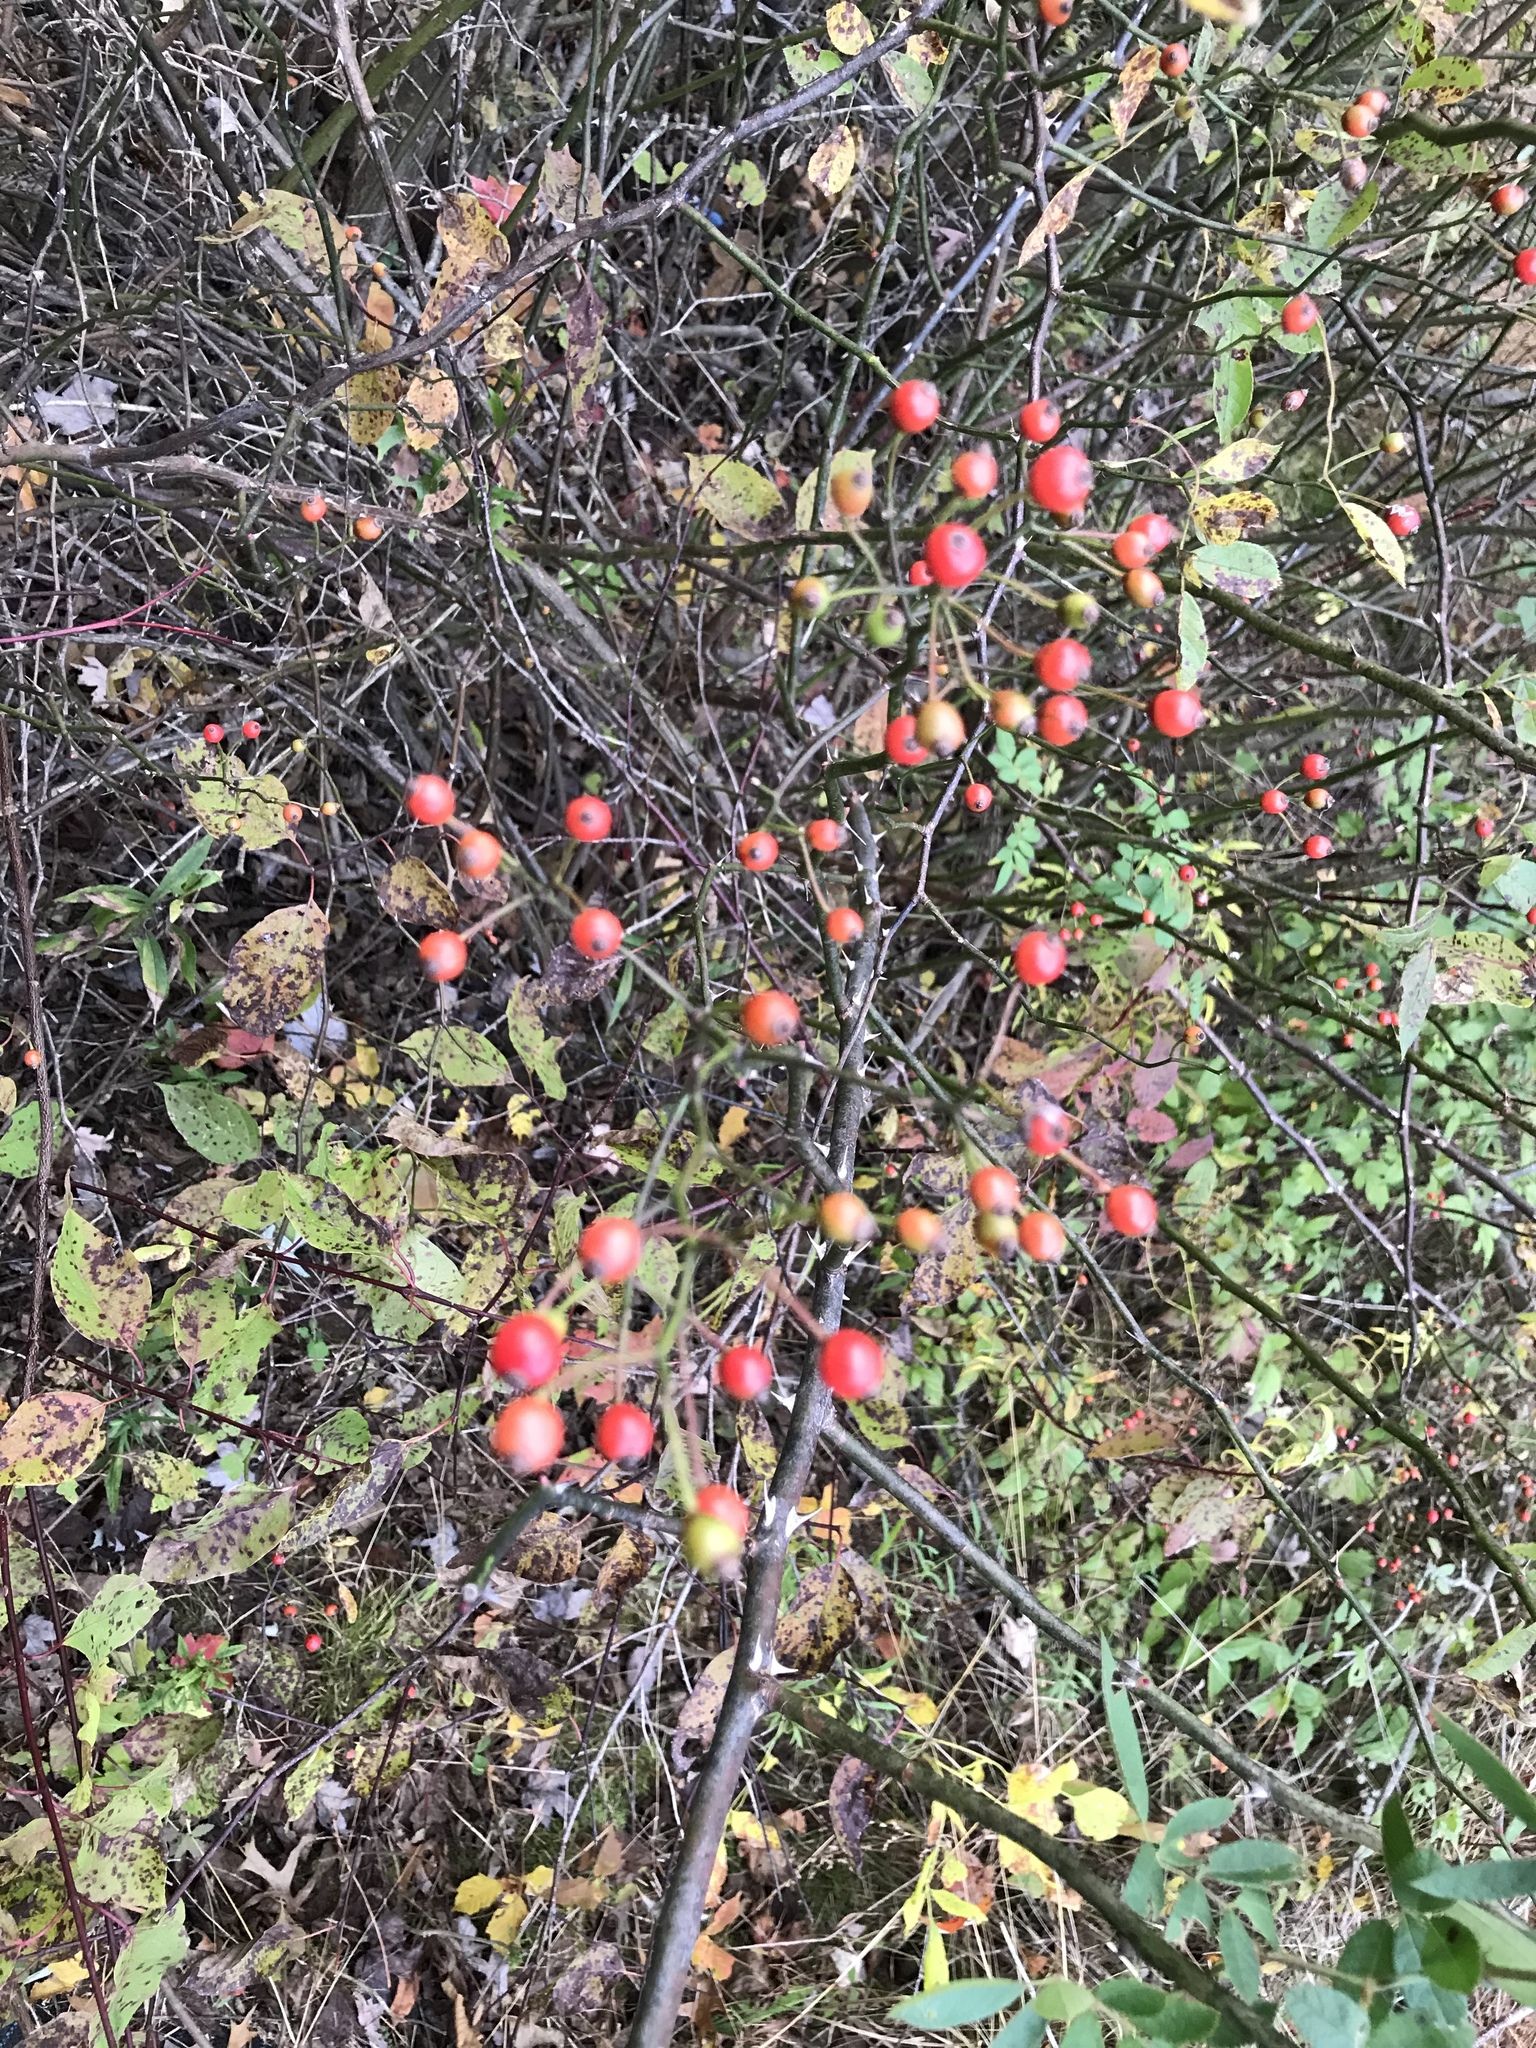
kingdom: Plantae
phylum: Tracheophyta
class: Magnoliopsida
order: Rosales
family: Rosaceae
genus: Rosa
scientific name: Rosa multiflora
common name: Multiflora rose
